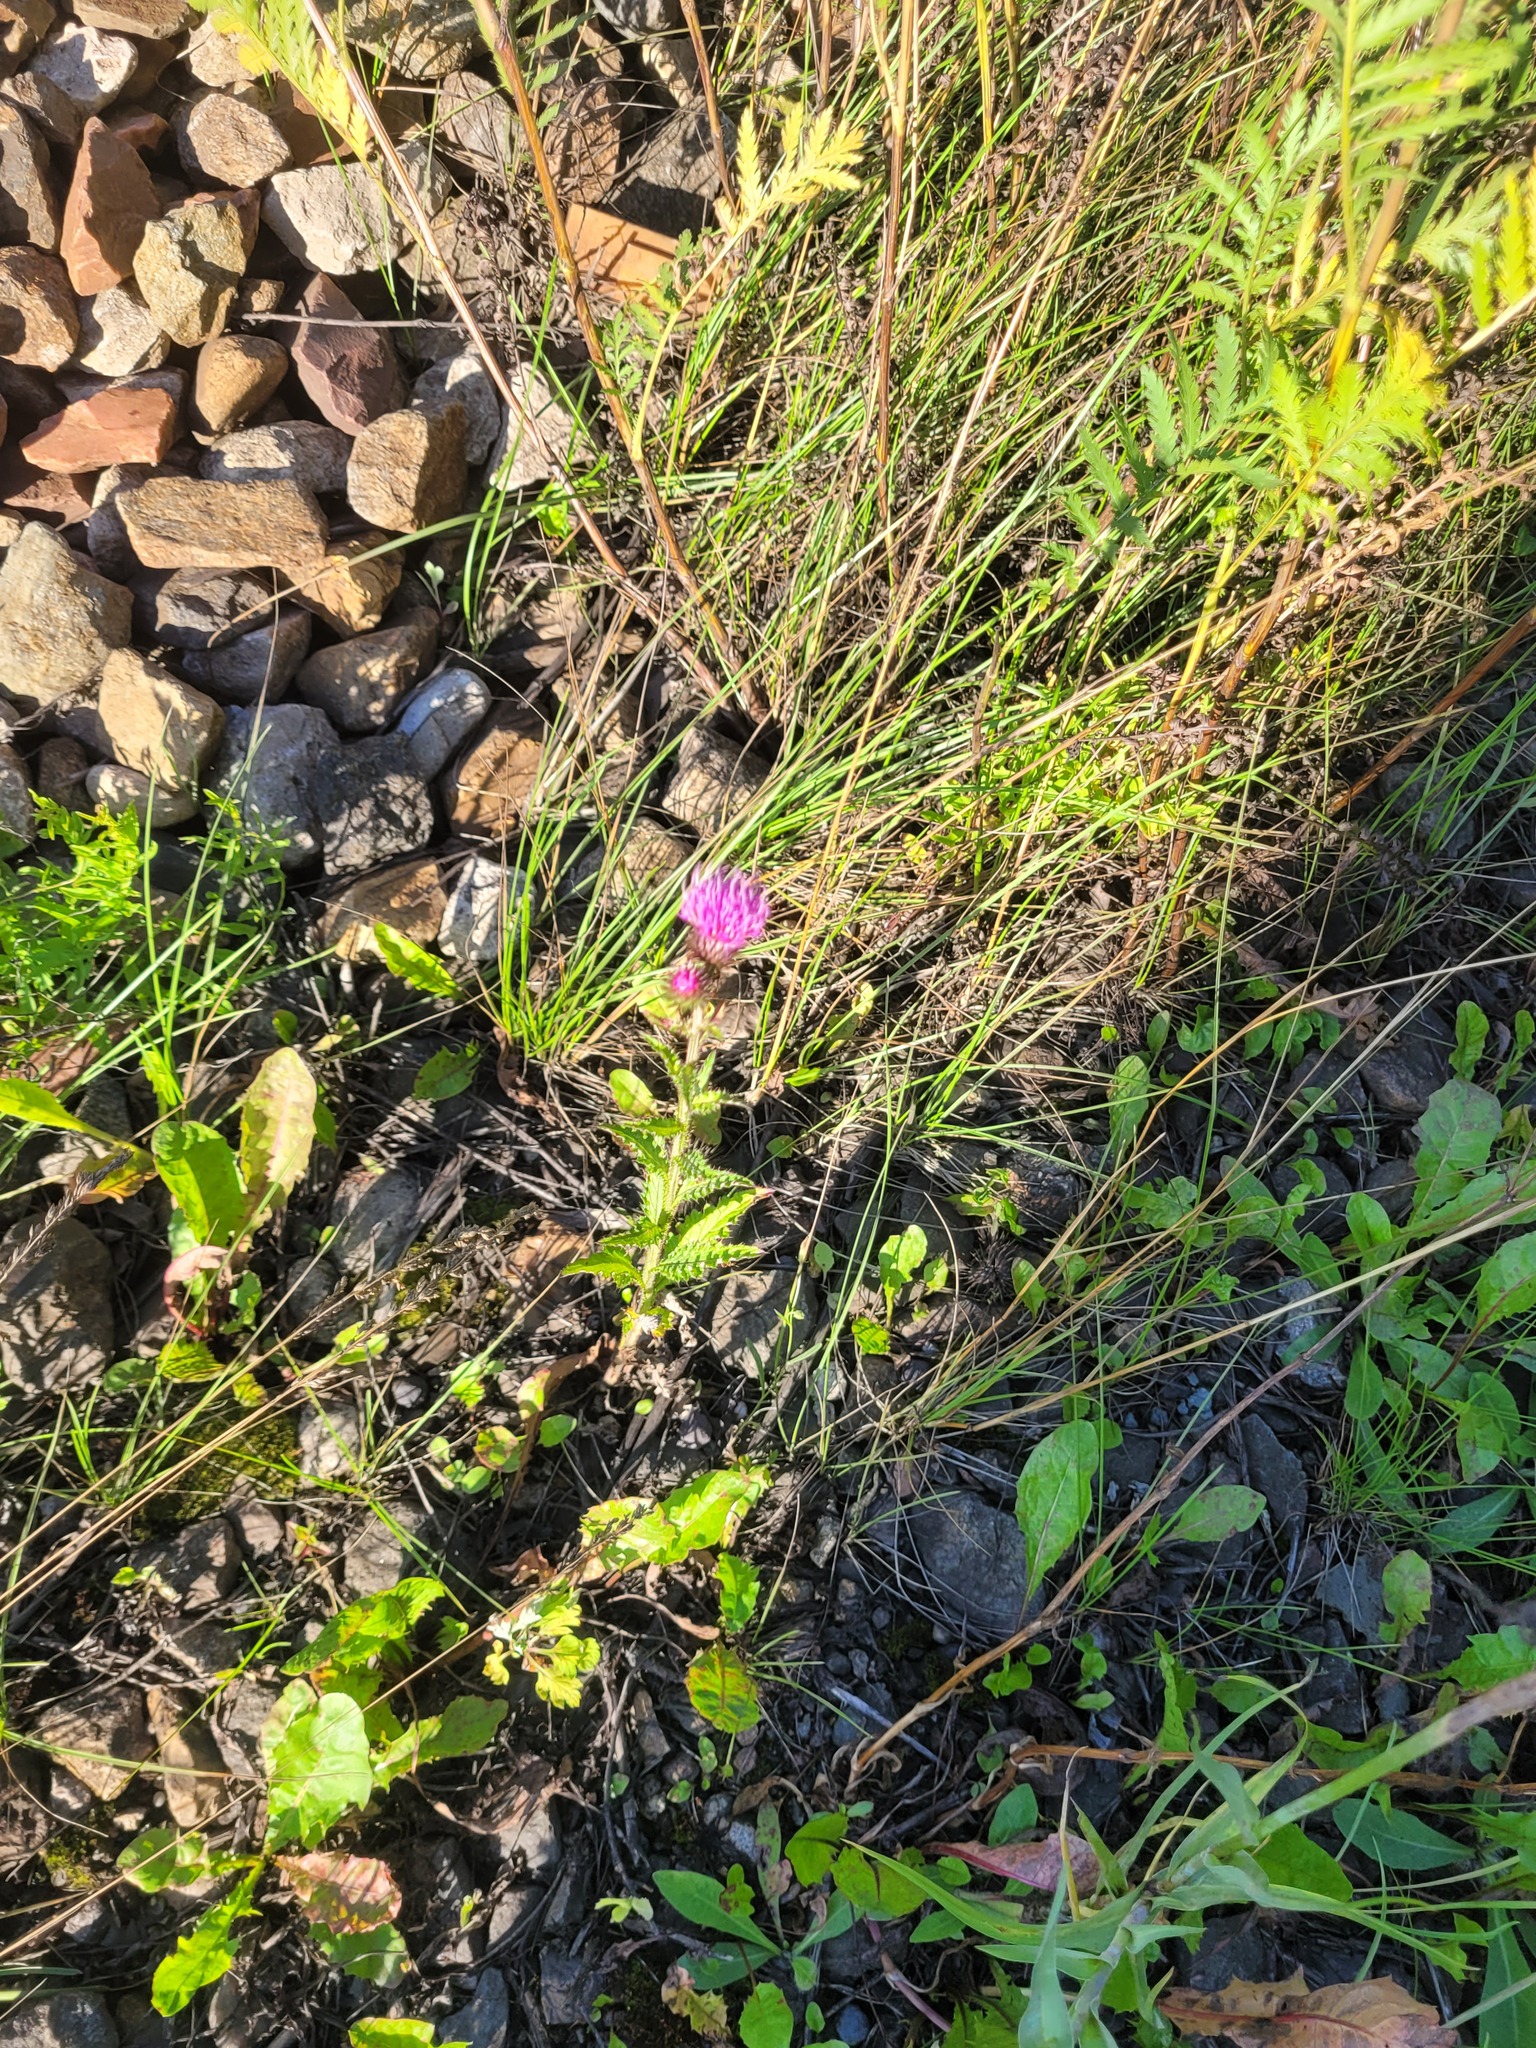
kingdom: Plantae
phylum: Tracheophyta
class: Magnoliopsida
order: Asterales
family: Asteraceae
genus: Carduus
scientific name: Carduus crispus
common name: Welted thistle
